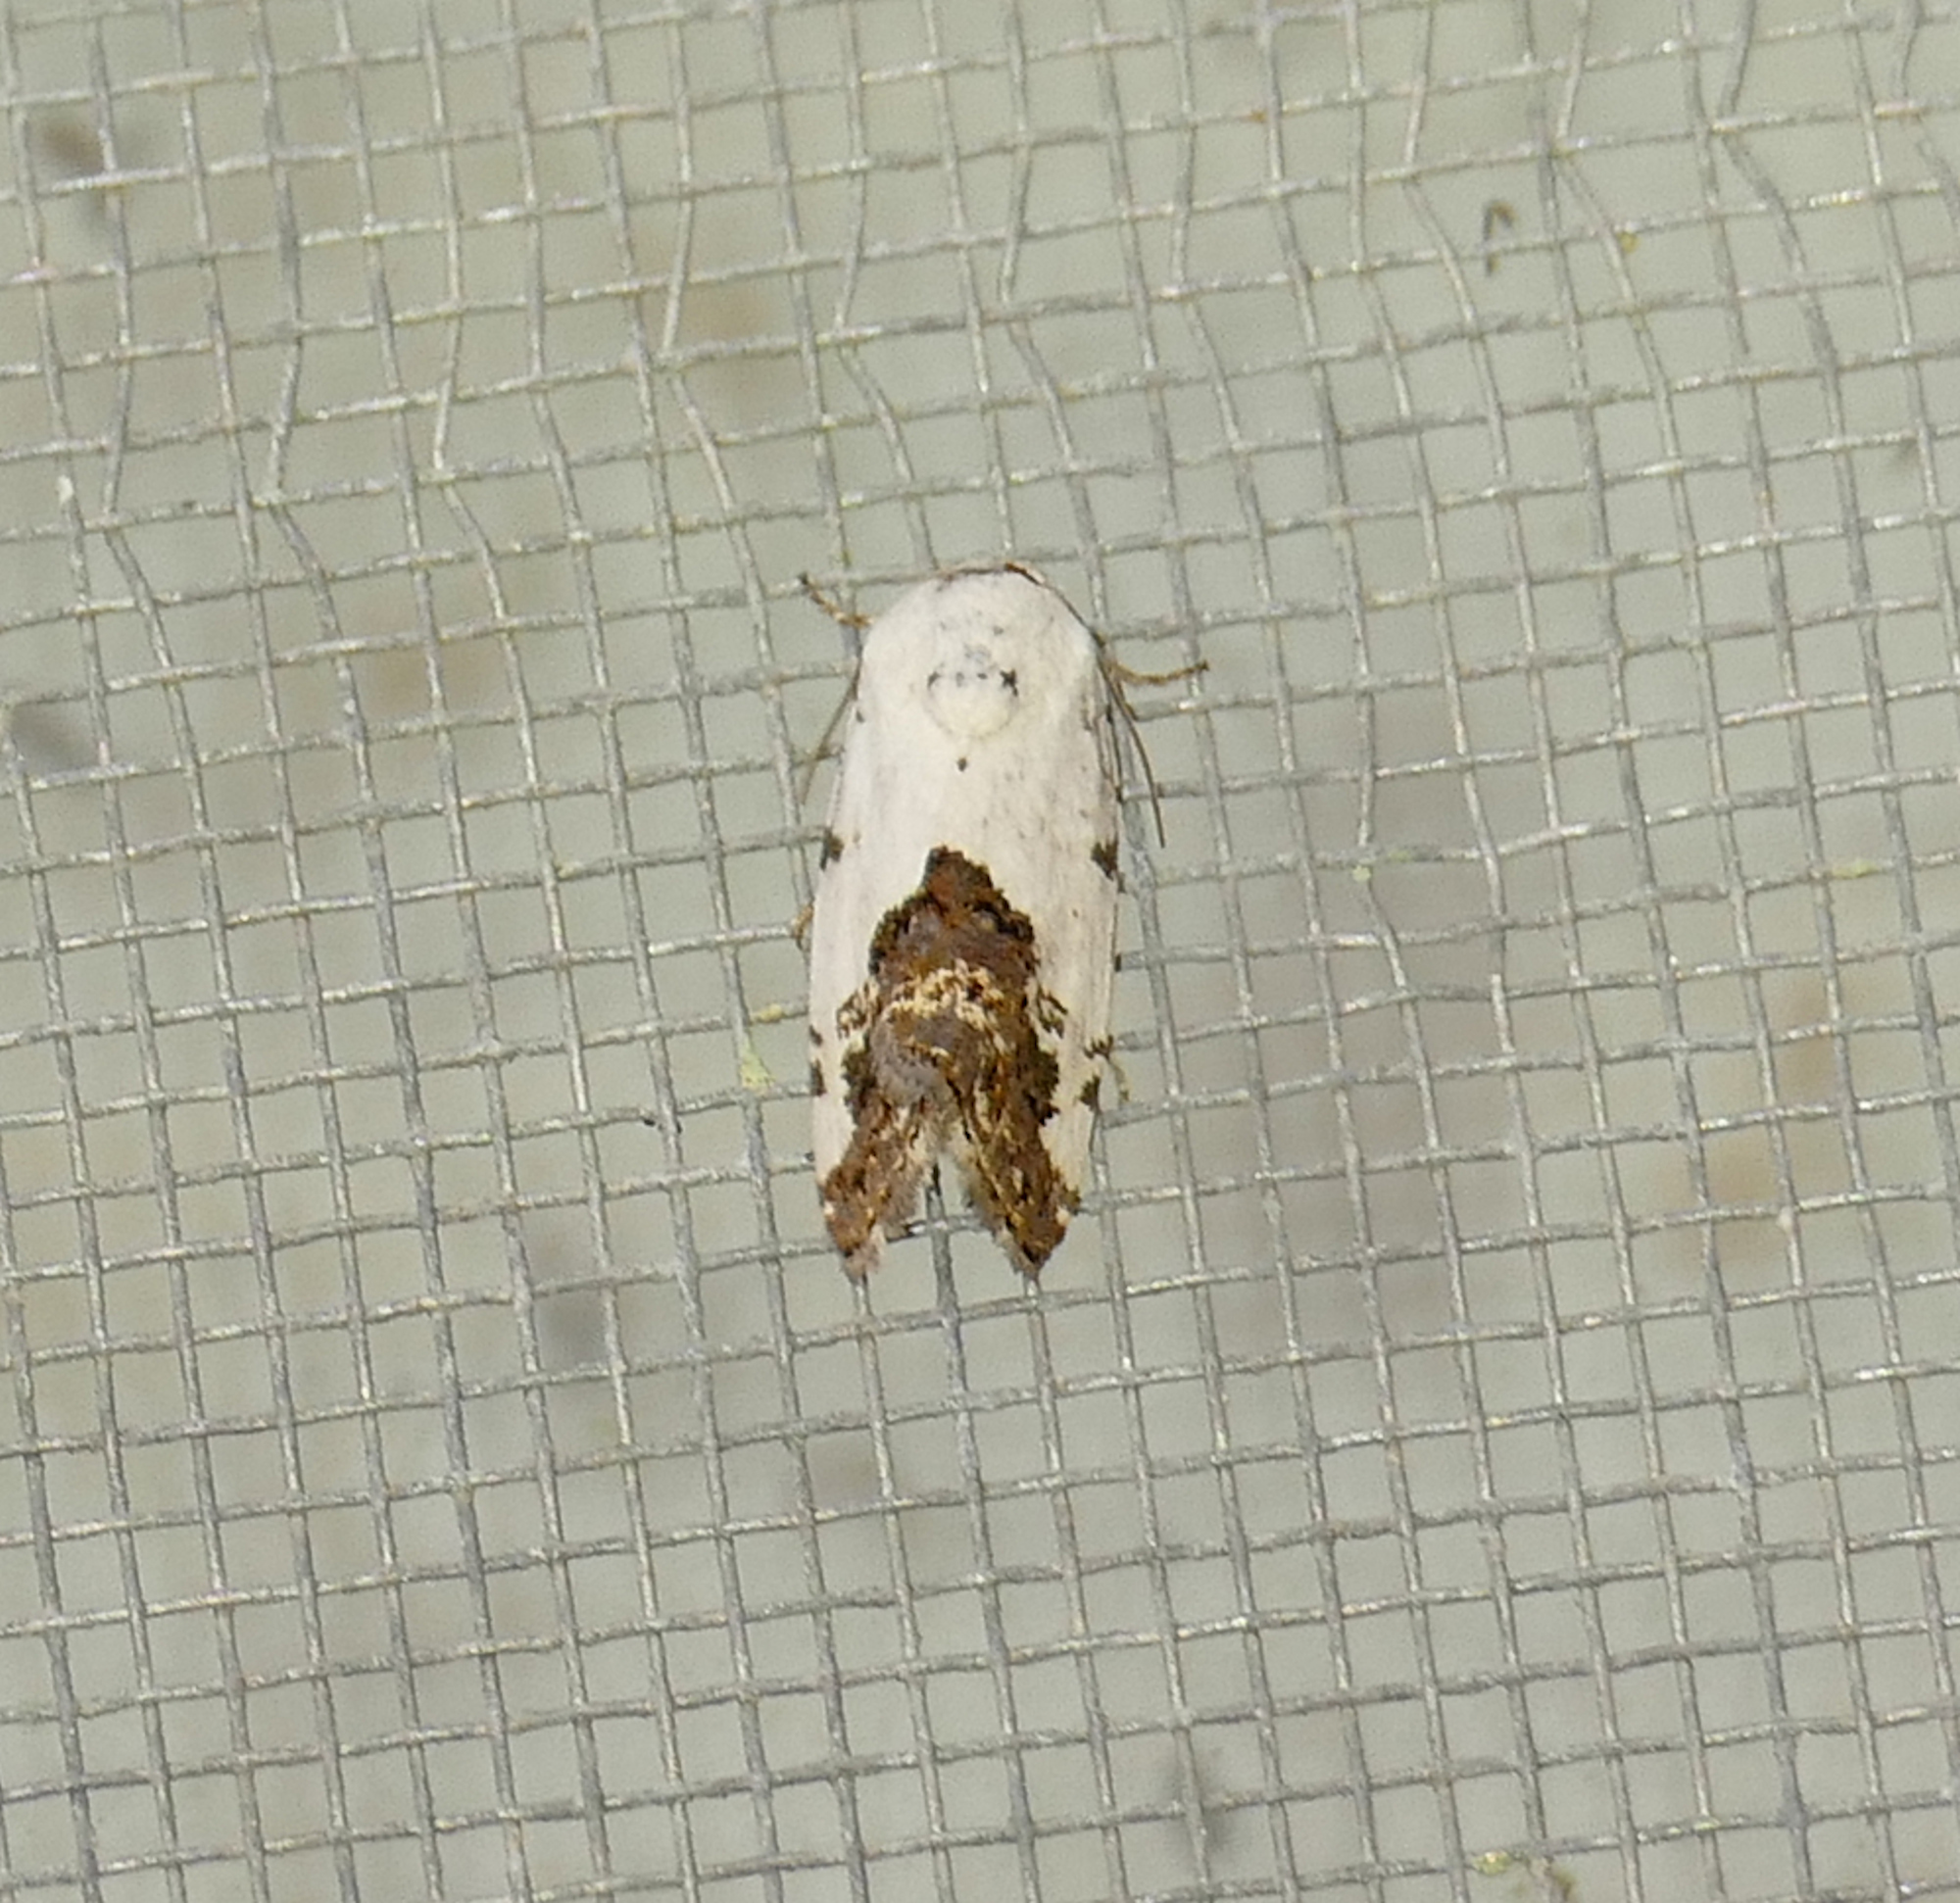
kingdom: Animalia
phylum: Arthropoda
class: Insecta
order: Lepidoptera
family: Noctuidae
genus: Acontia
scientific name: Acontia aprica
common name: Nun
